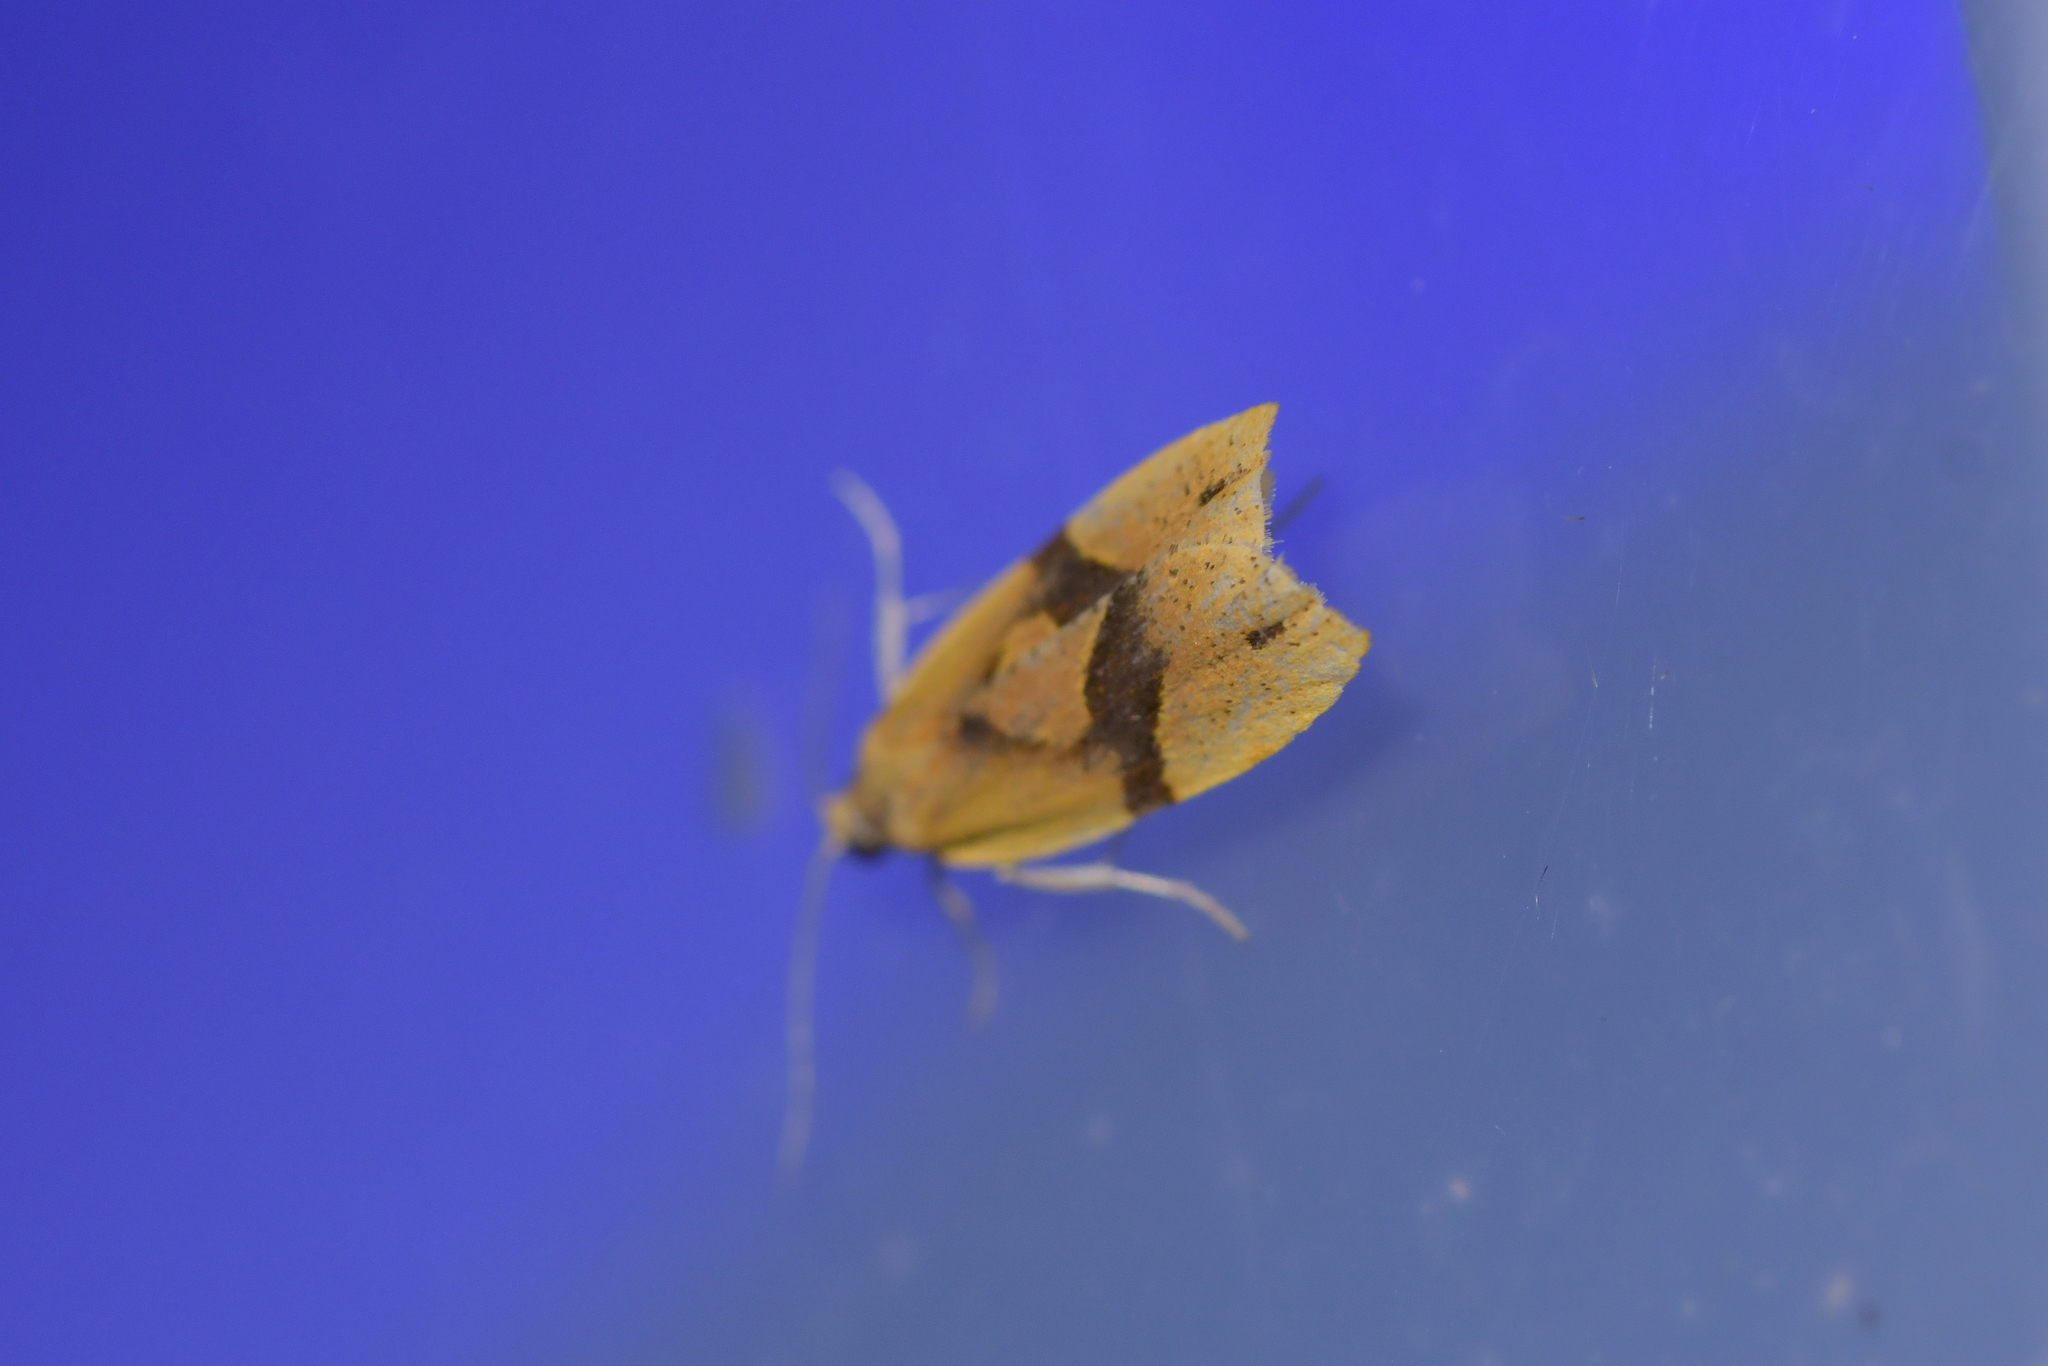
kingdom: Animalia
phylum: Arthropoda
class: Insecta
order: Lepidoptera
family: Tortricidae
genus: Apoctena
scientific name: Apoctena pictoriana
